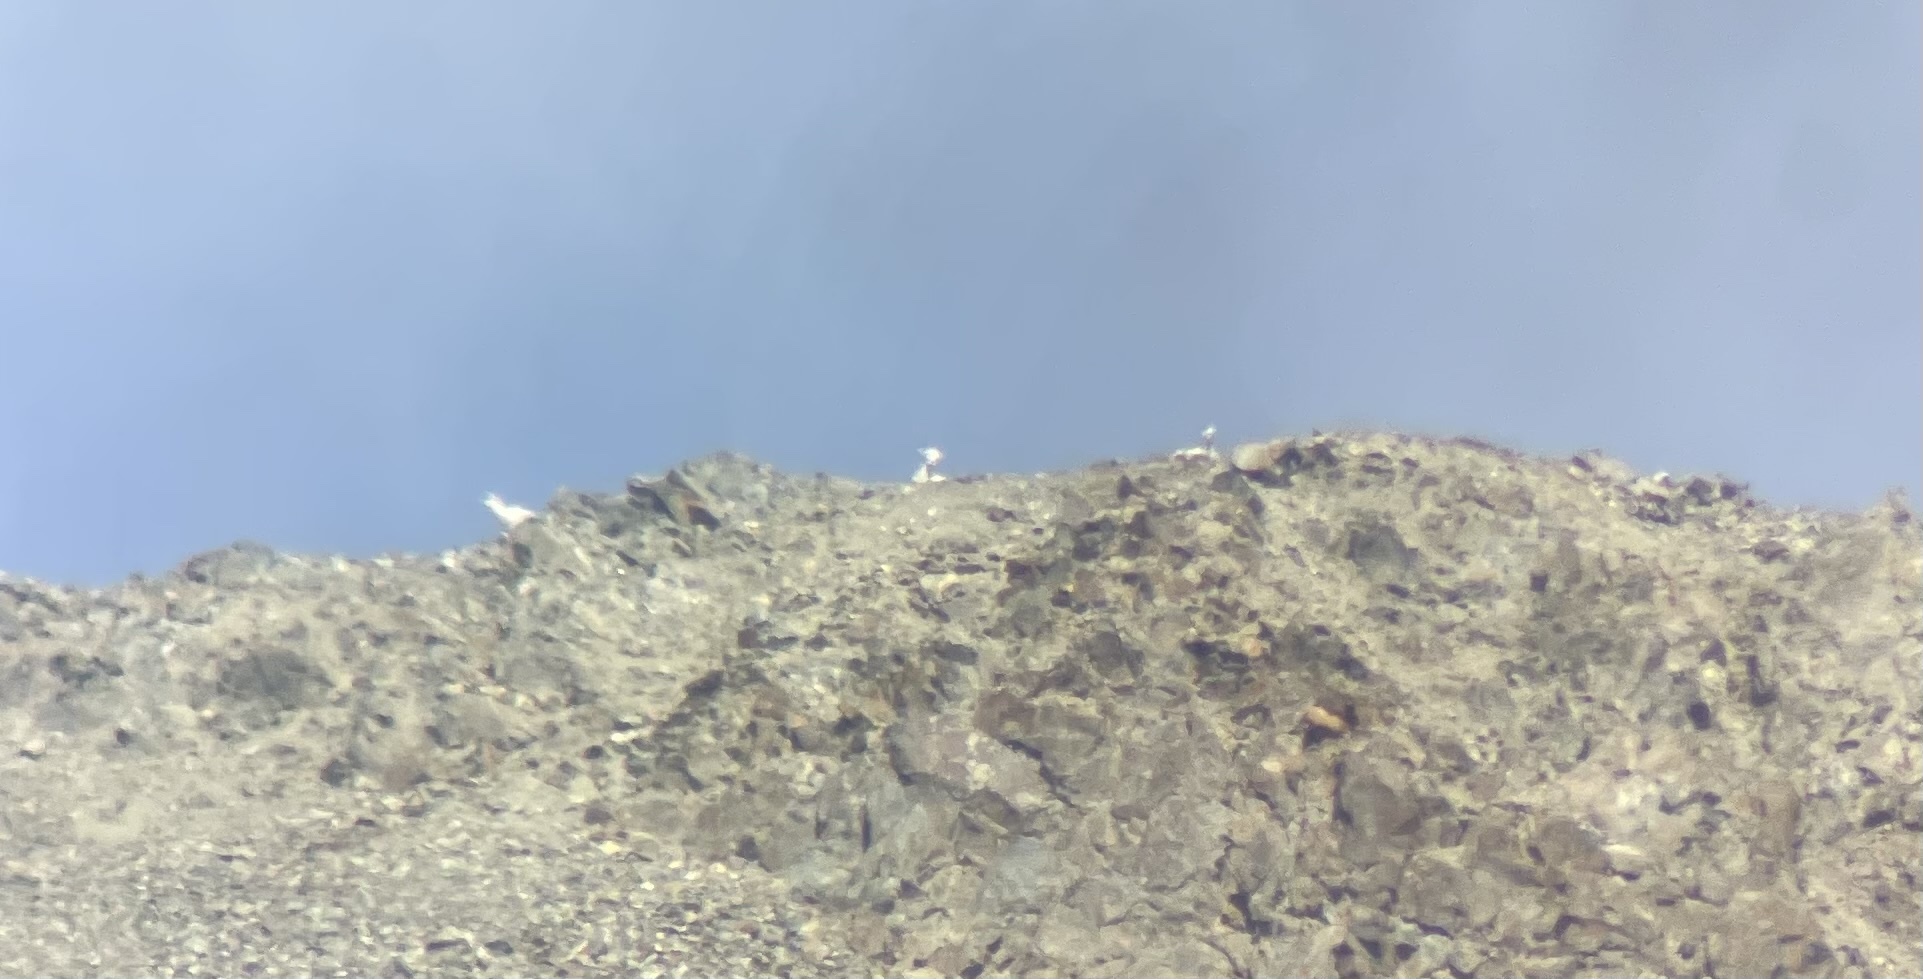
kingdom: Animalia
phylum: Chordata
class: Mammalia
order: Artiodactyla
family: Bovidae
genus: Ovis
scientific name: Ovis dalli
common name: Dall's sheep
